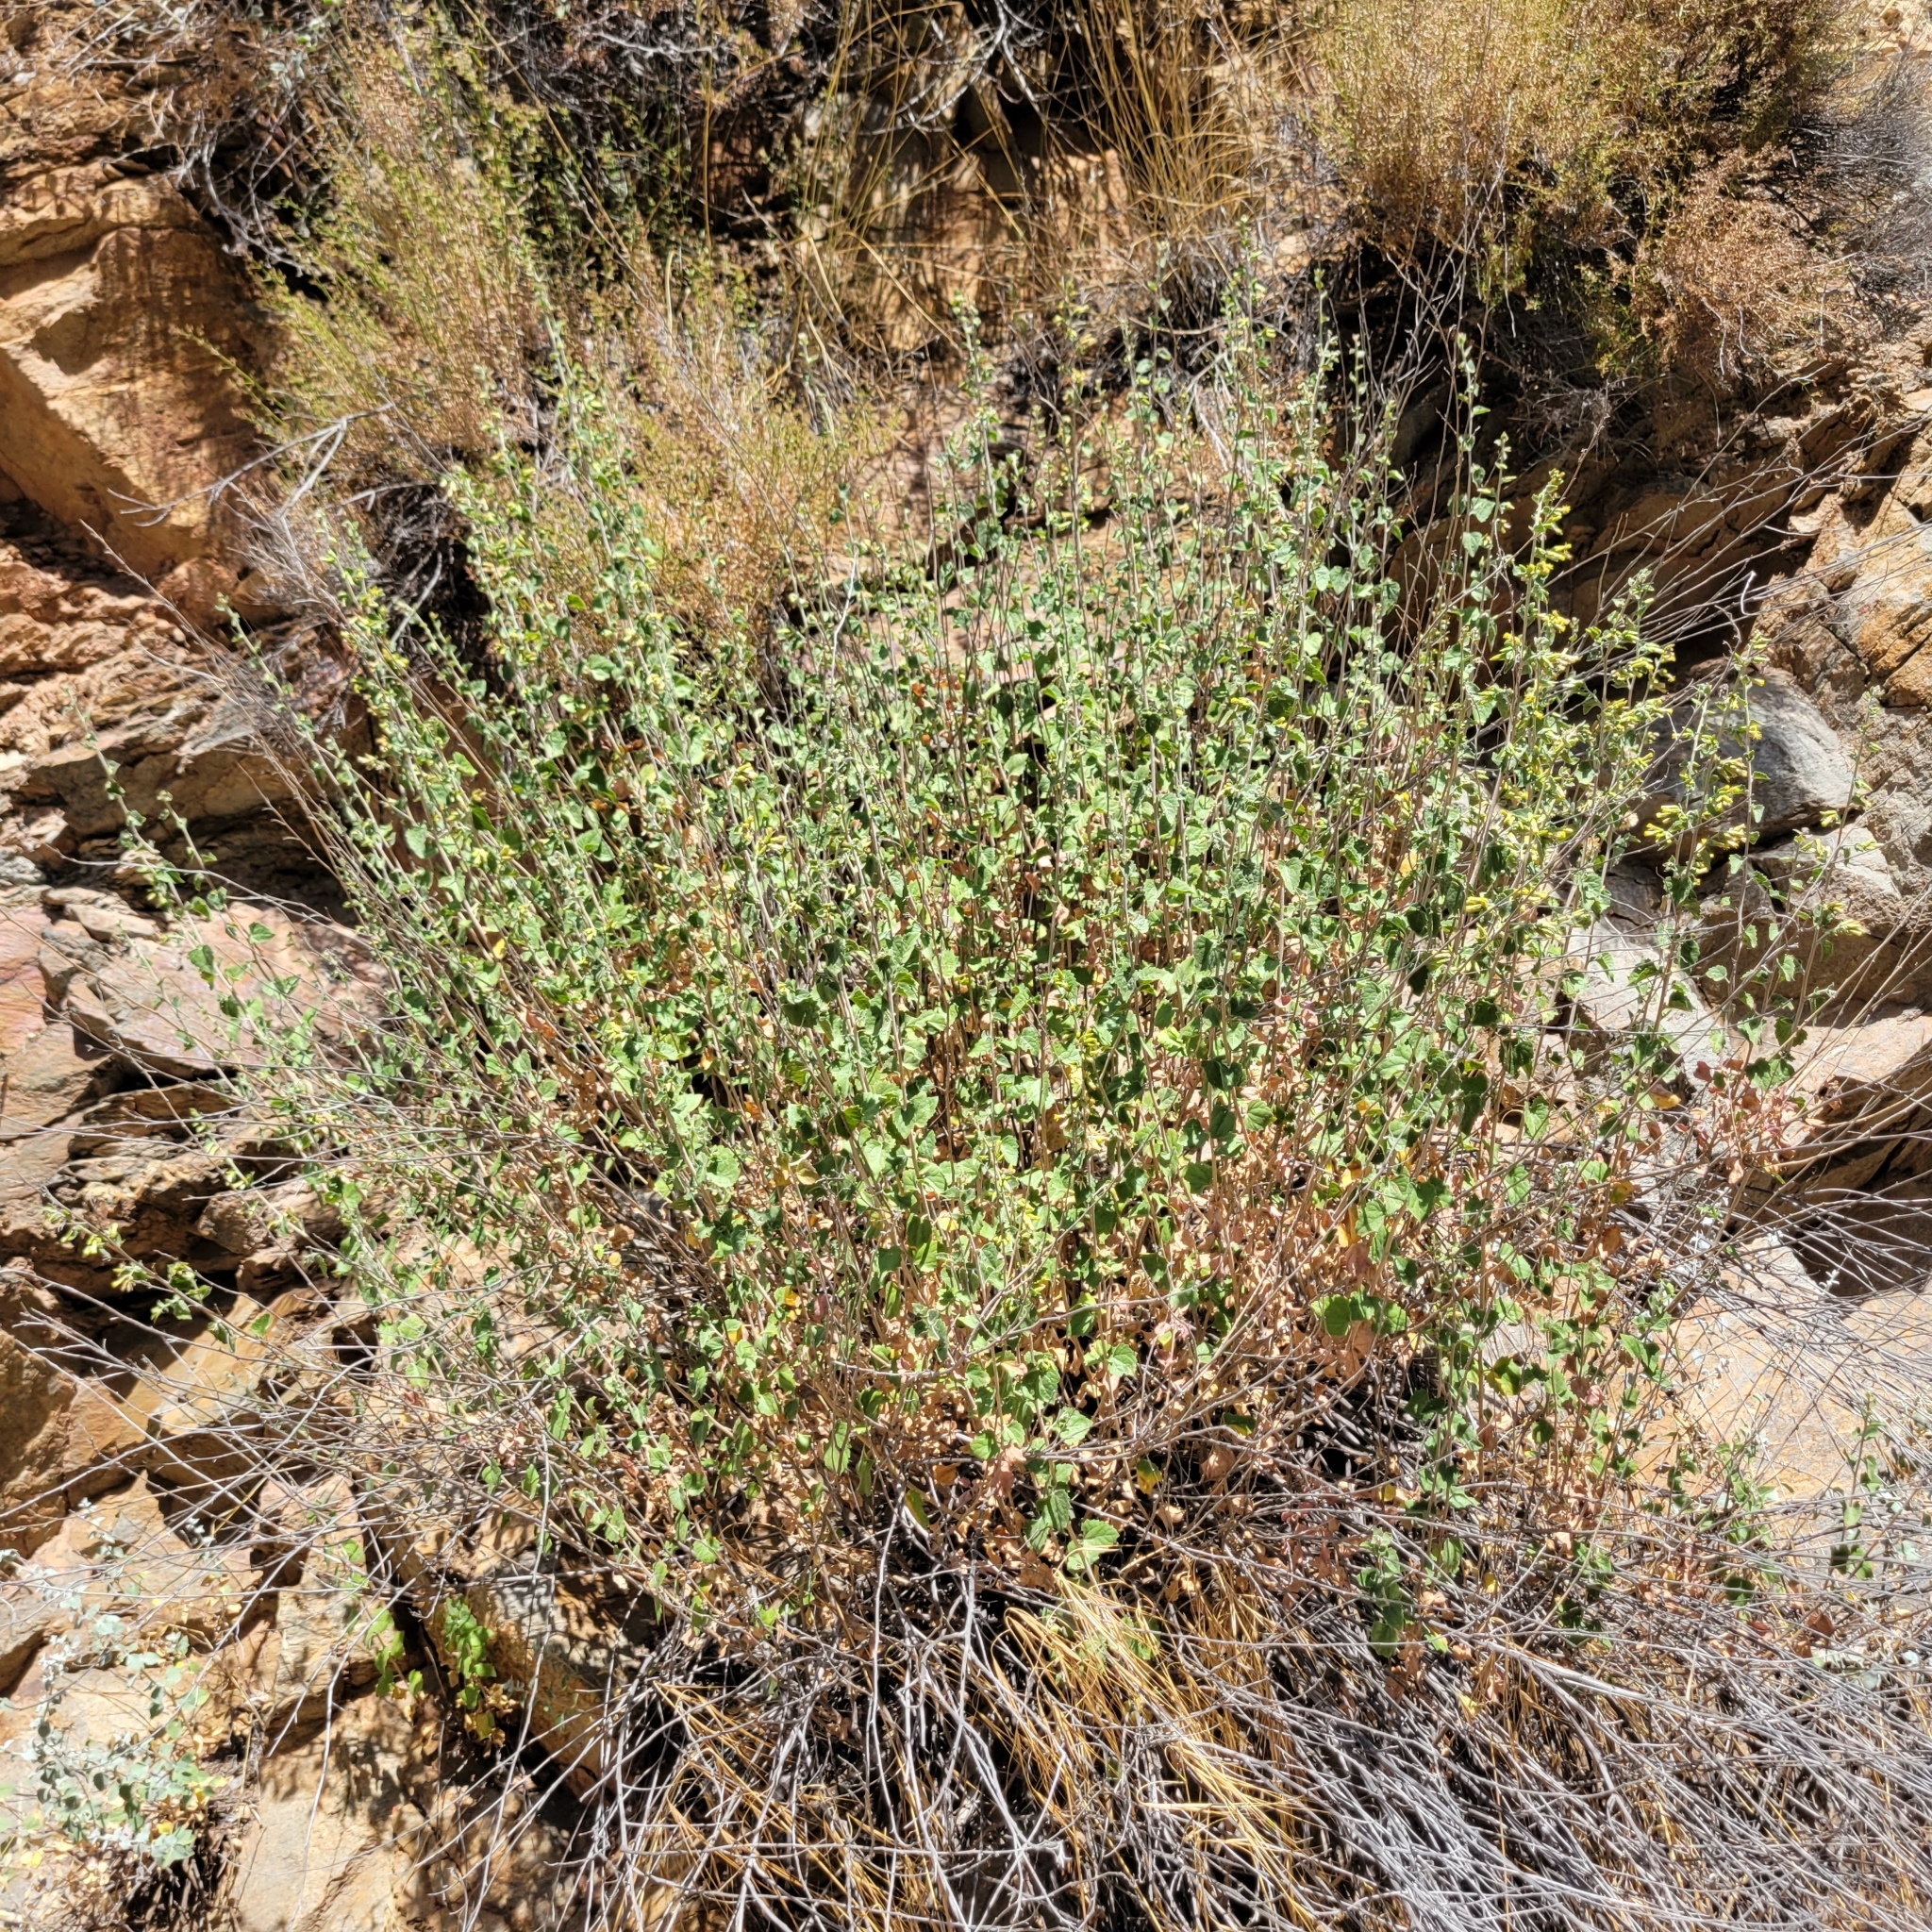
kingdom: Plantae
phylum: Tracheophyta
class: Magnoliopsida
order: Asterales
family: Asteraceae
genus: Brickellia
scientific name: Brickellia californica
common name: California brickellbush
